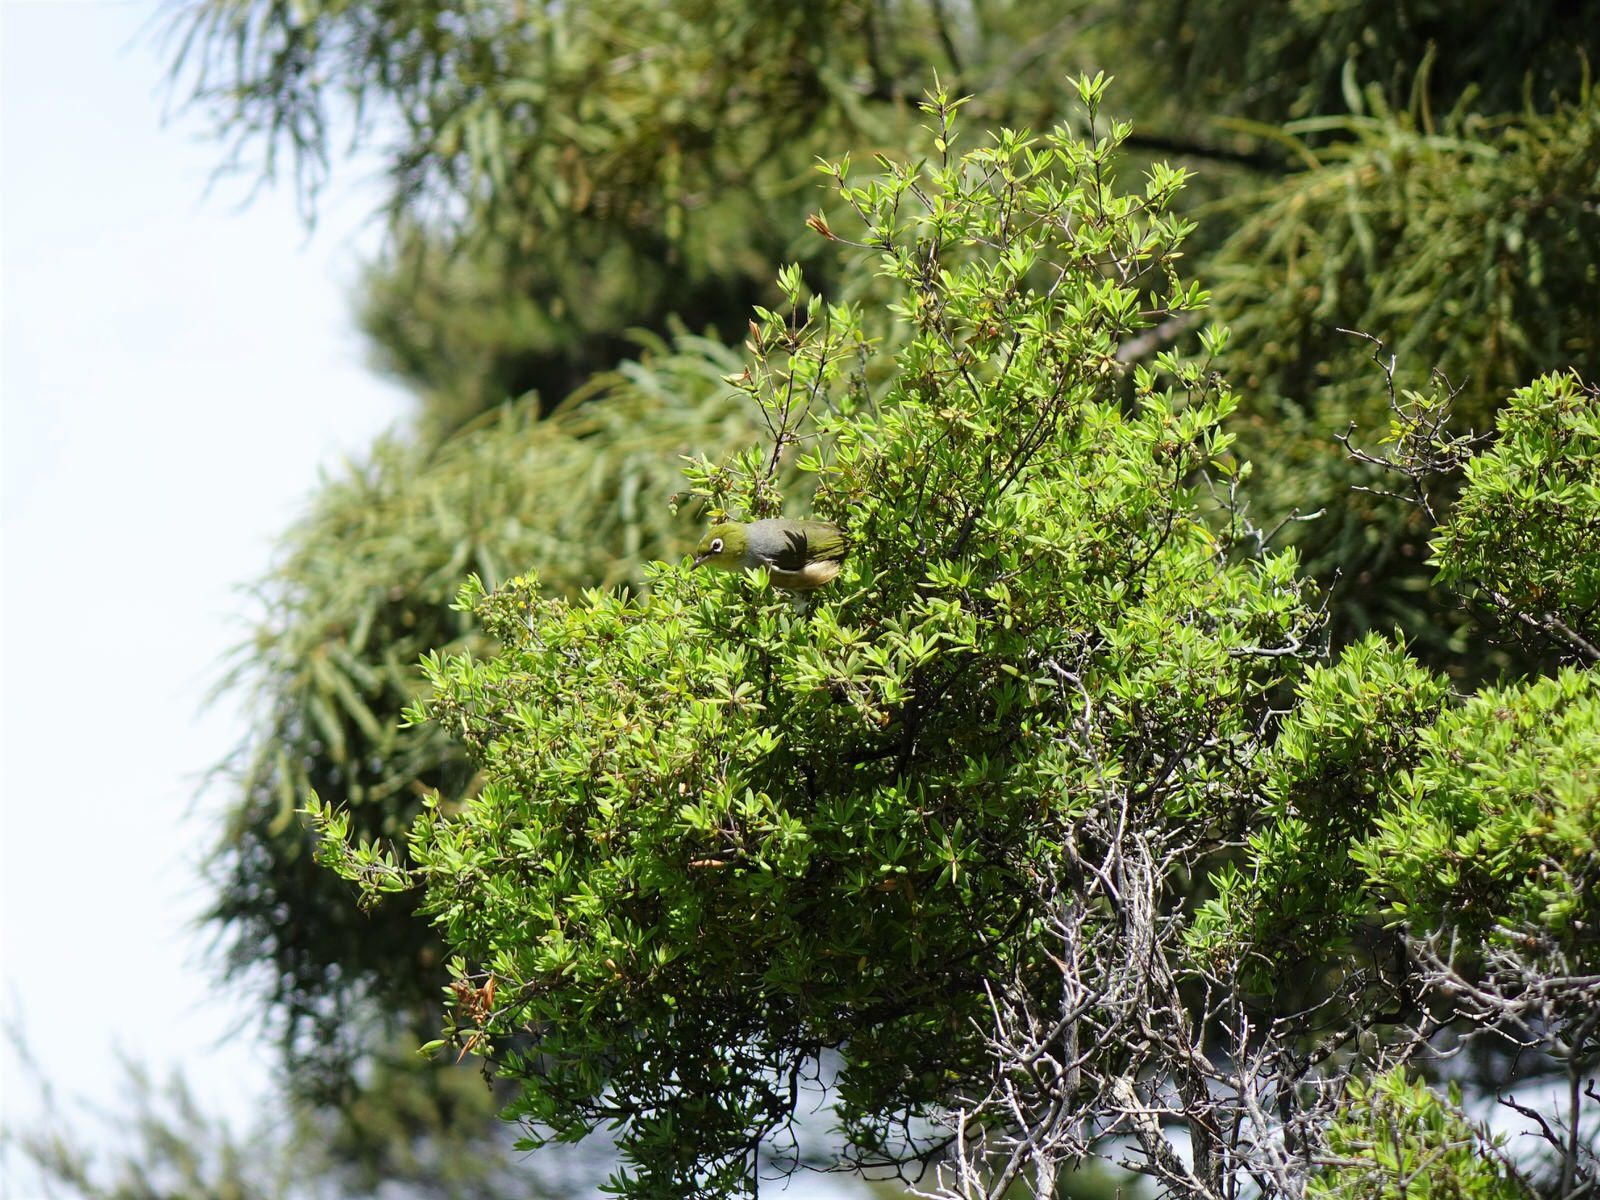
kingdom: Animalia
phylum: Chordata
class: Aves
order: Passeriformes
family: Zosteropidae
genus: Zosterops
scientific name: Zosterops lateralis
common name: Silvereye
